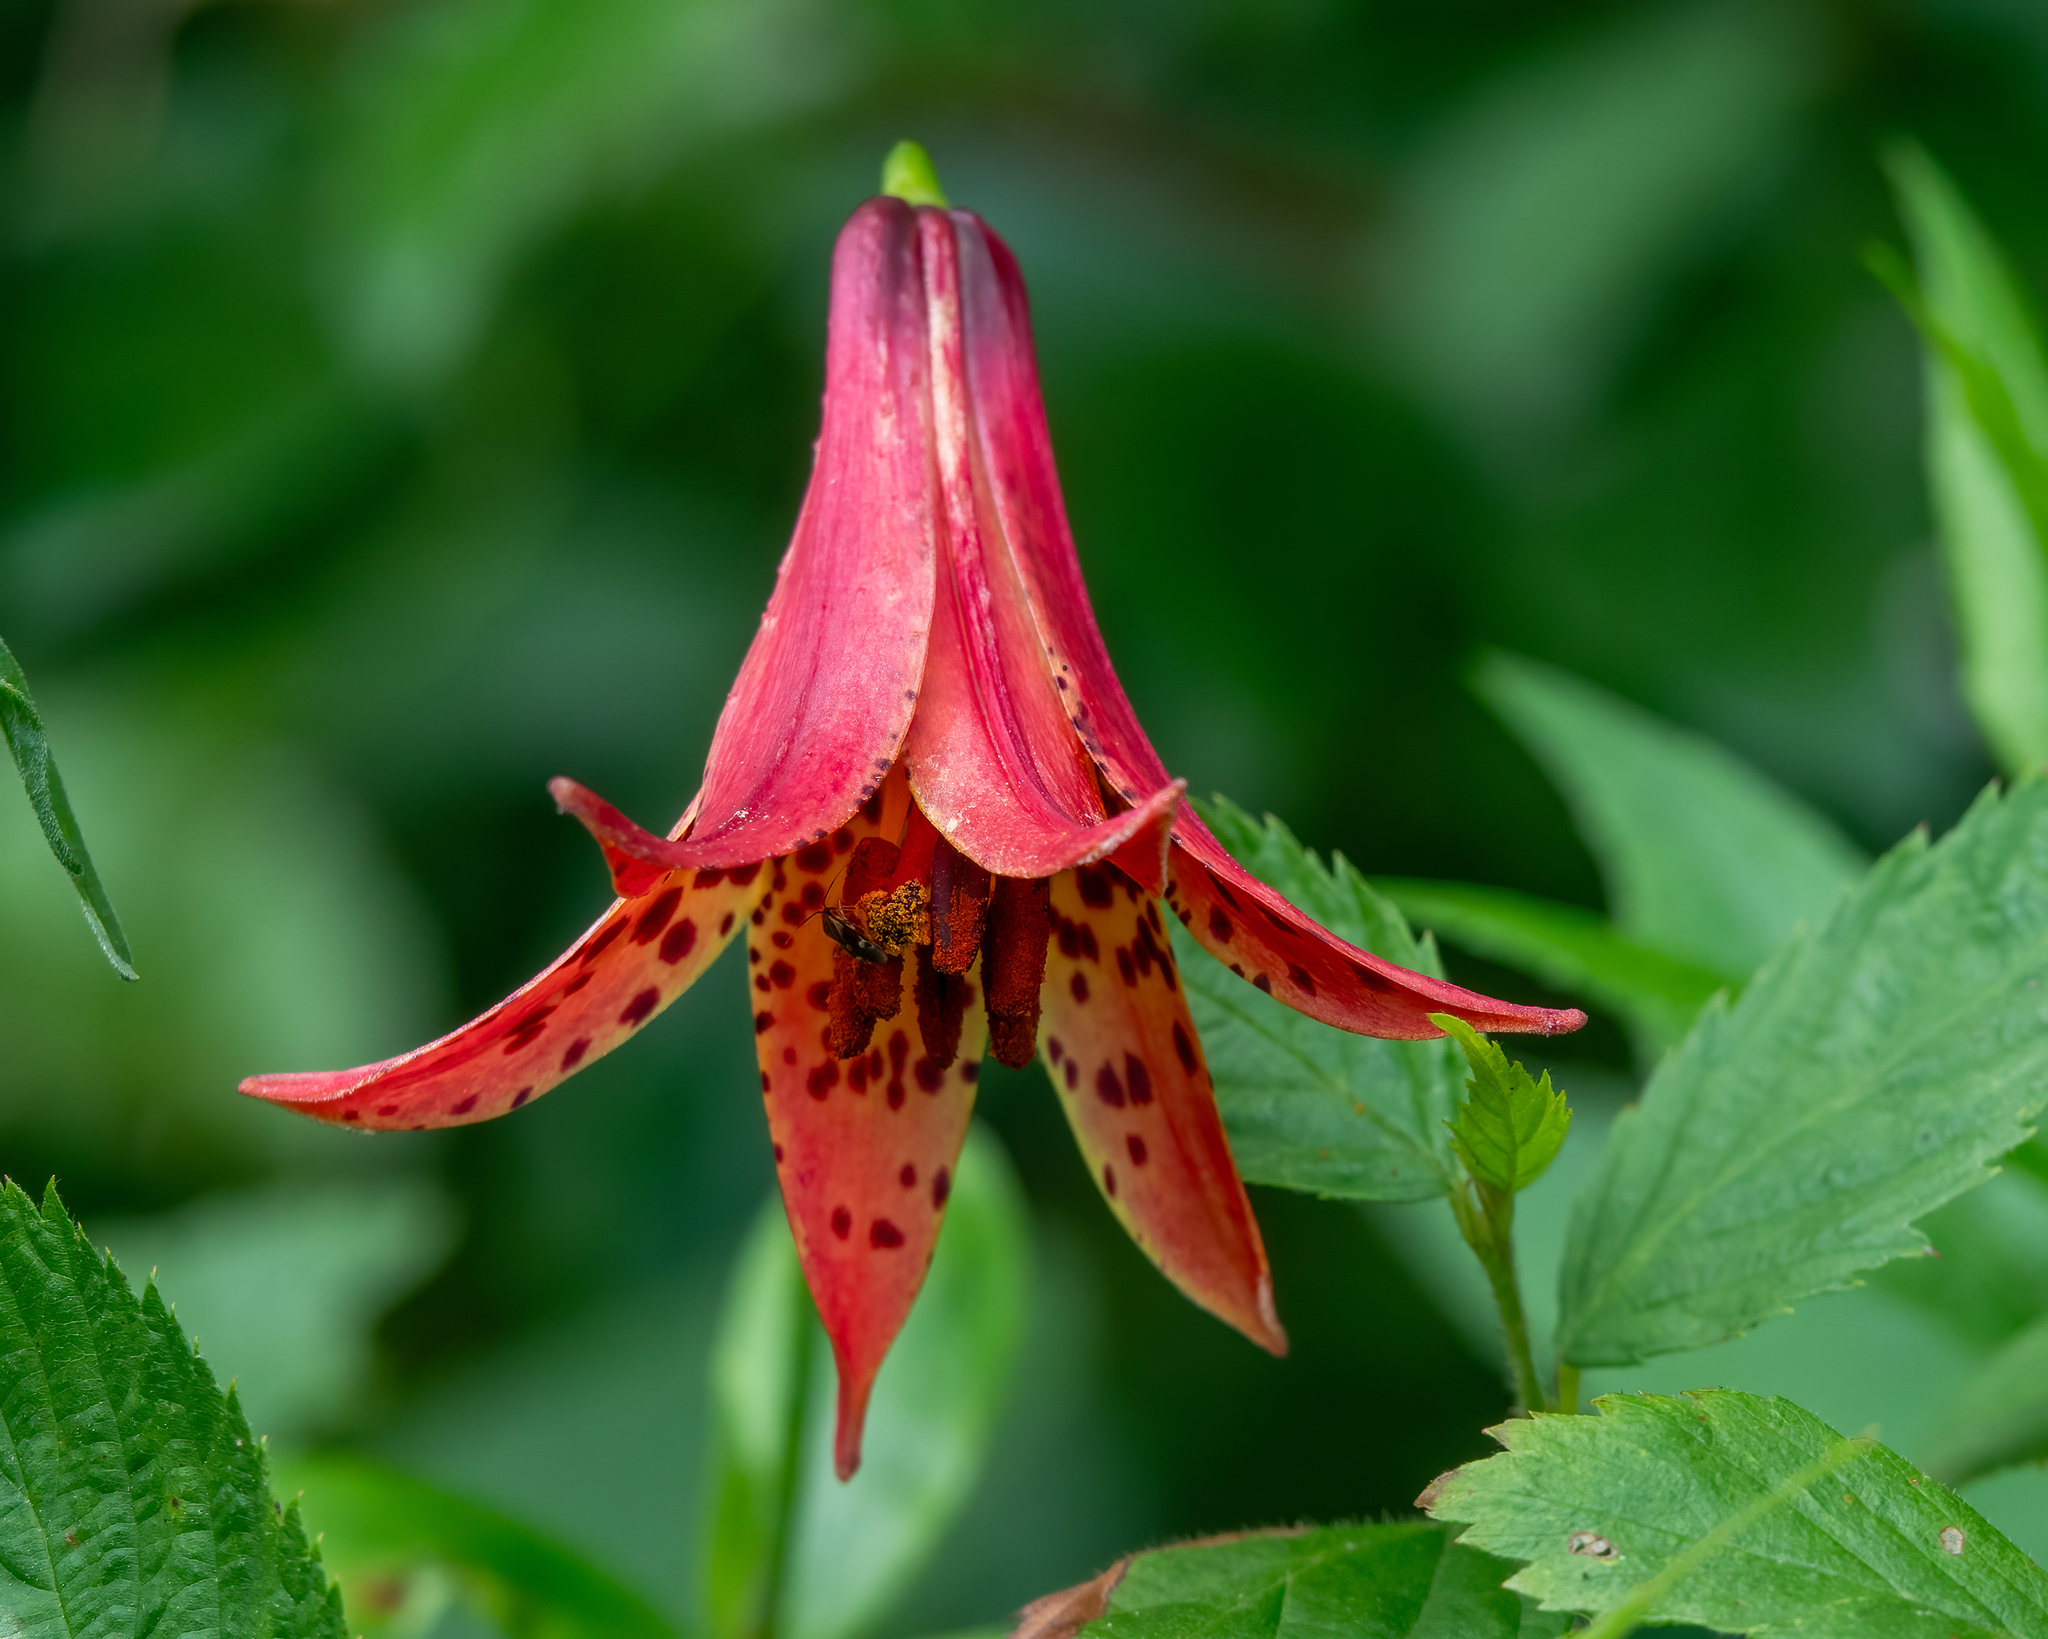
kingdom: Plantae
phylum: Tracheophyta
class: Liliopsida
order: Liliales
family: Liliaceae
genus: Lilium
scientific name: Lilium canadense
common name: Canada lily
